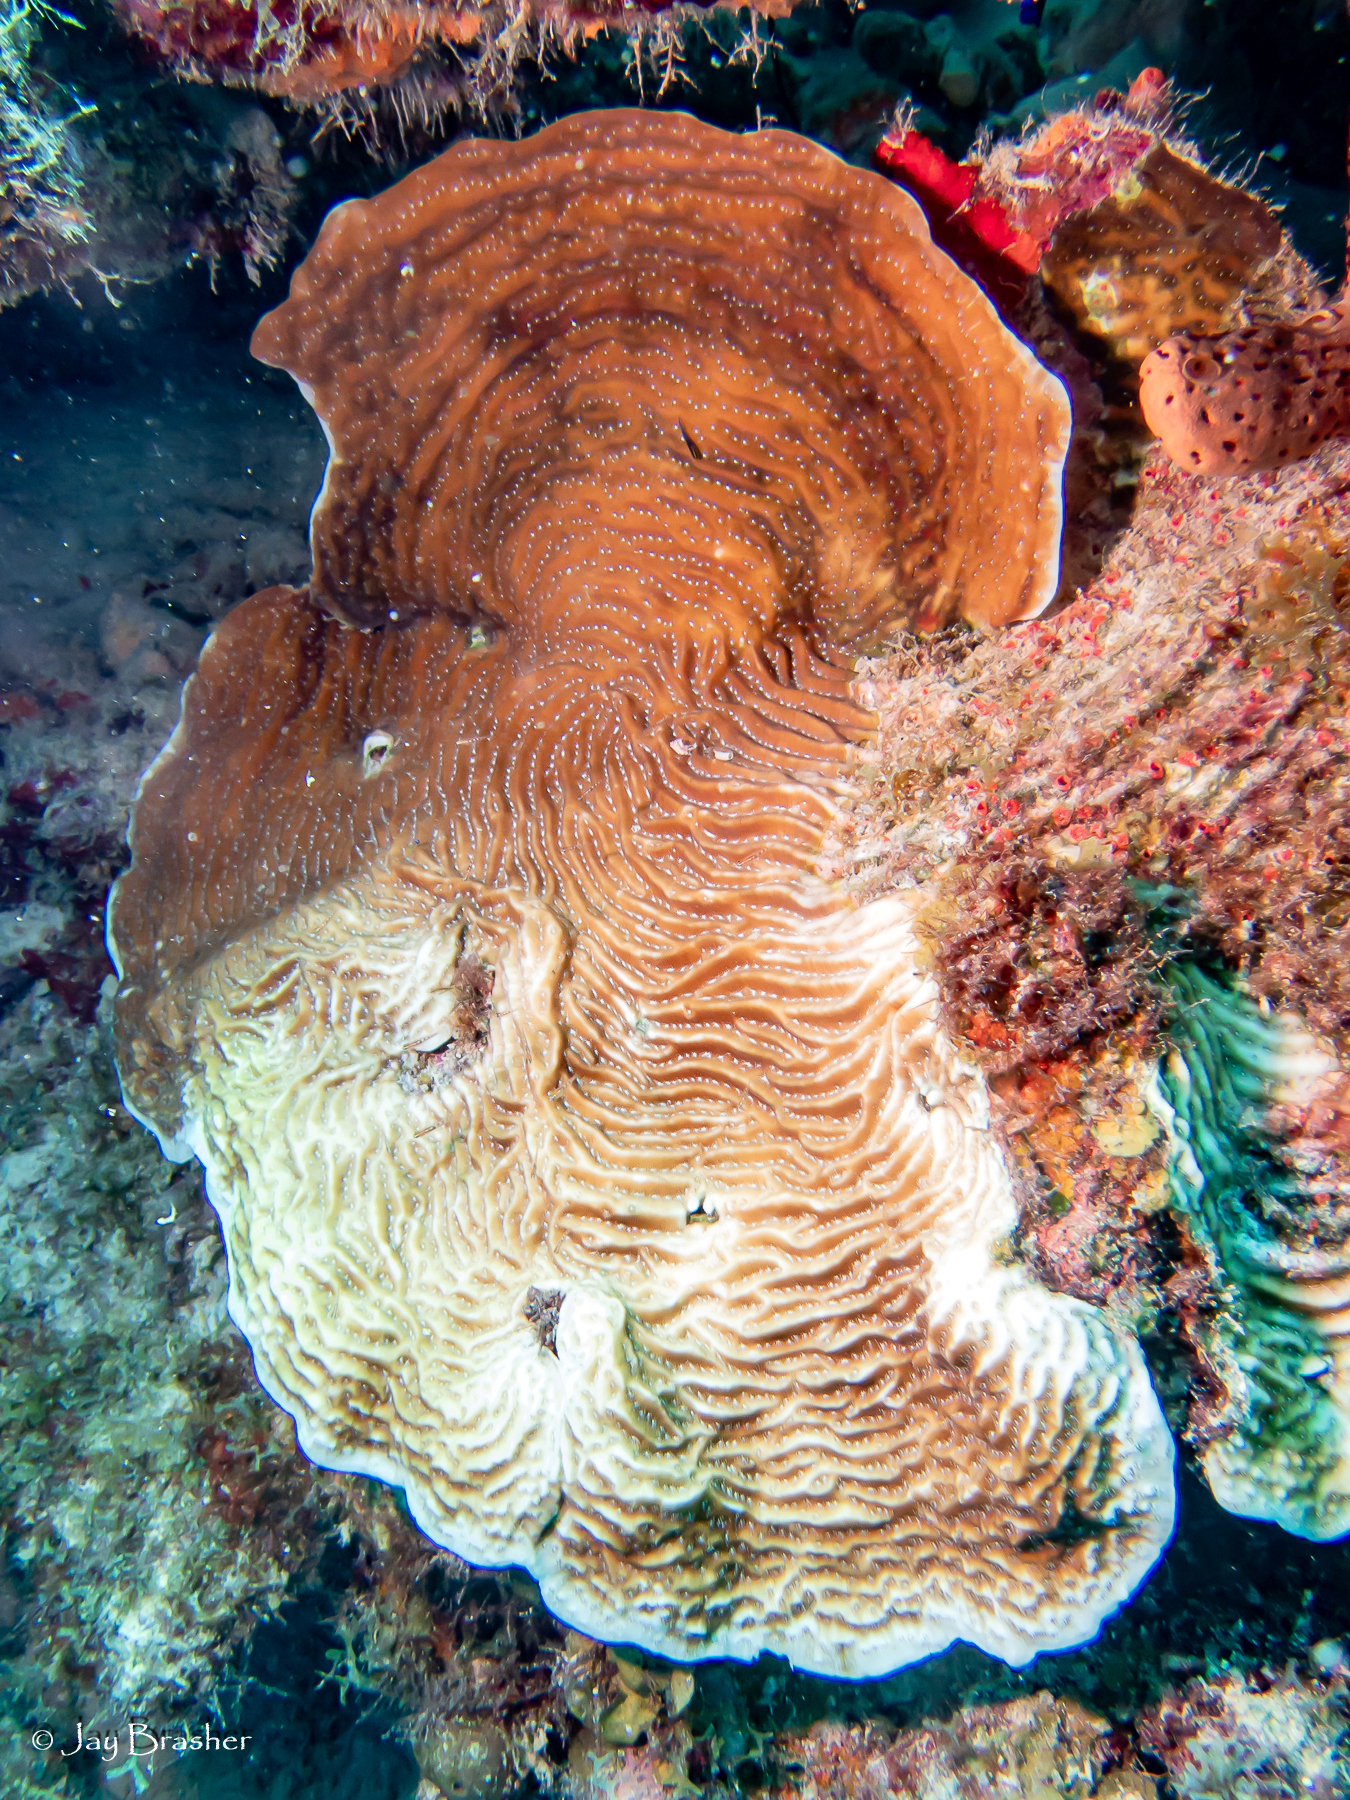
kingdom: Animalia
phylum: Cnidaria
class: Anthozoa
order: Scleractinia
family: Agariciidae
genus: Agaricia
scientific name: Agaricia lamarcki
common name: Lamarck's sheet coral
